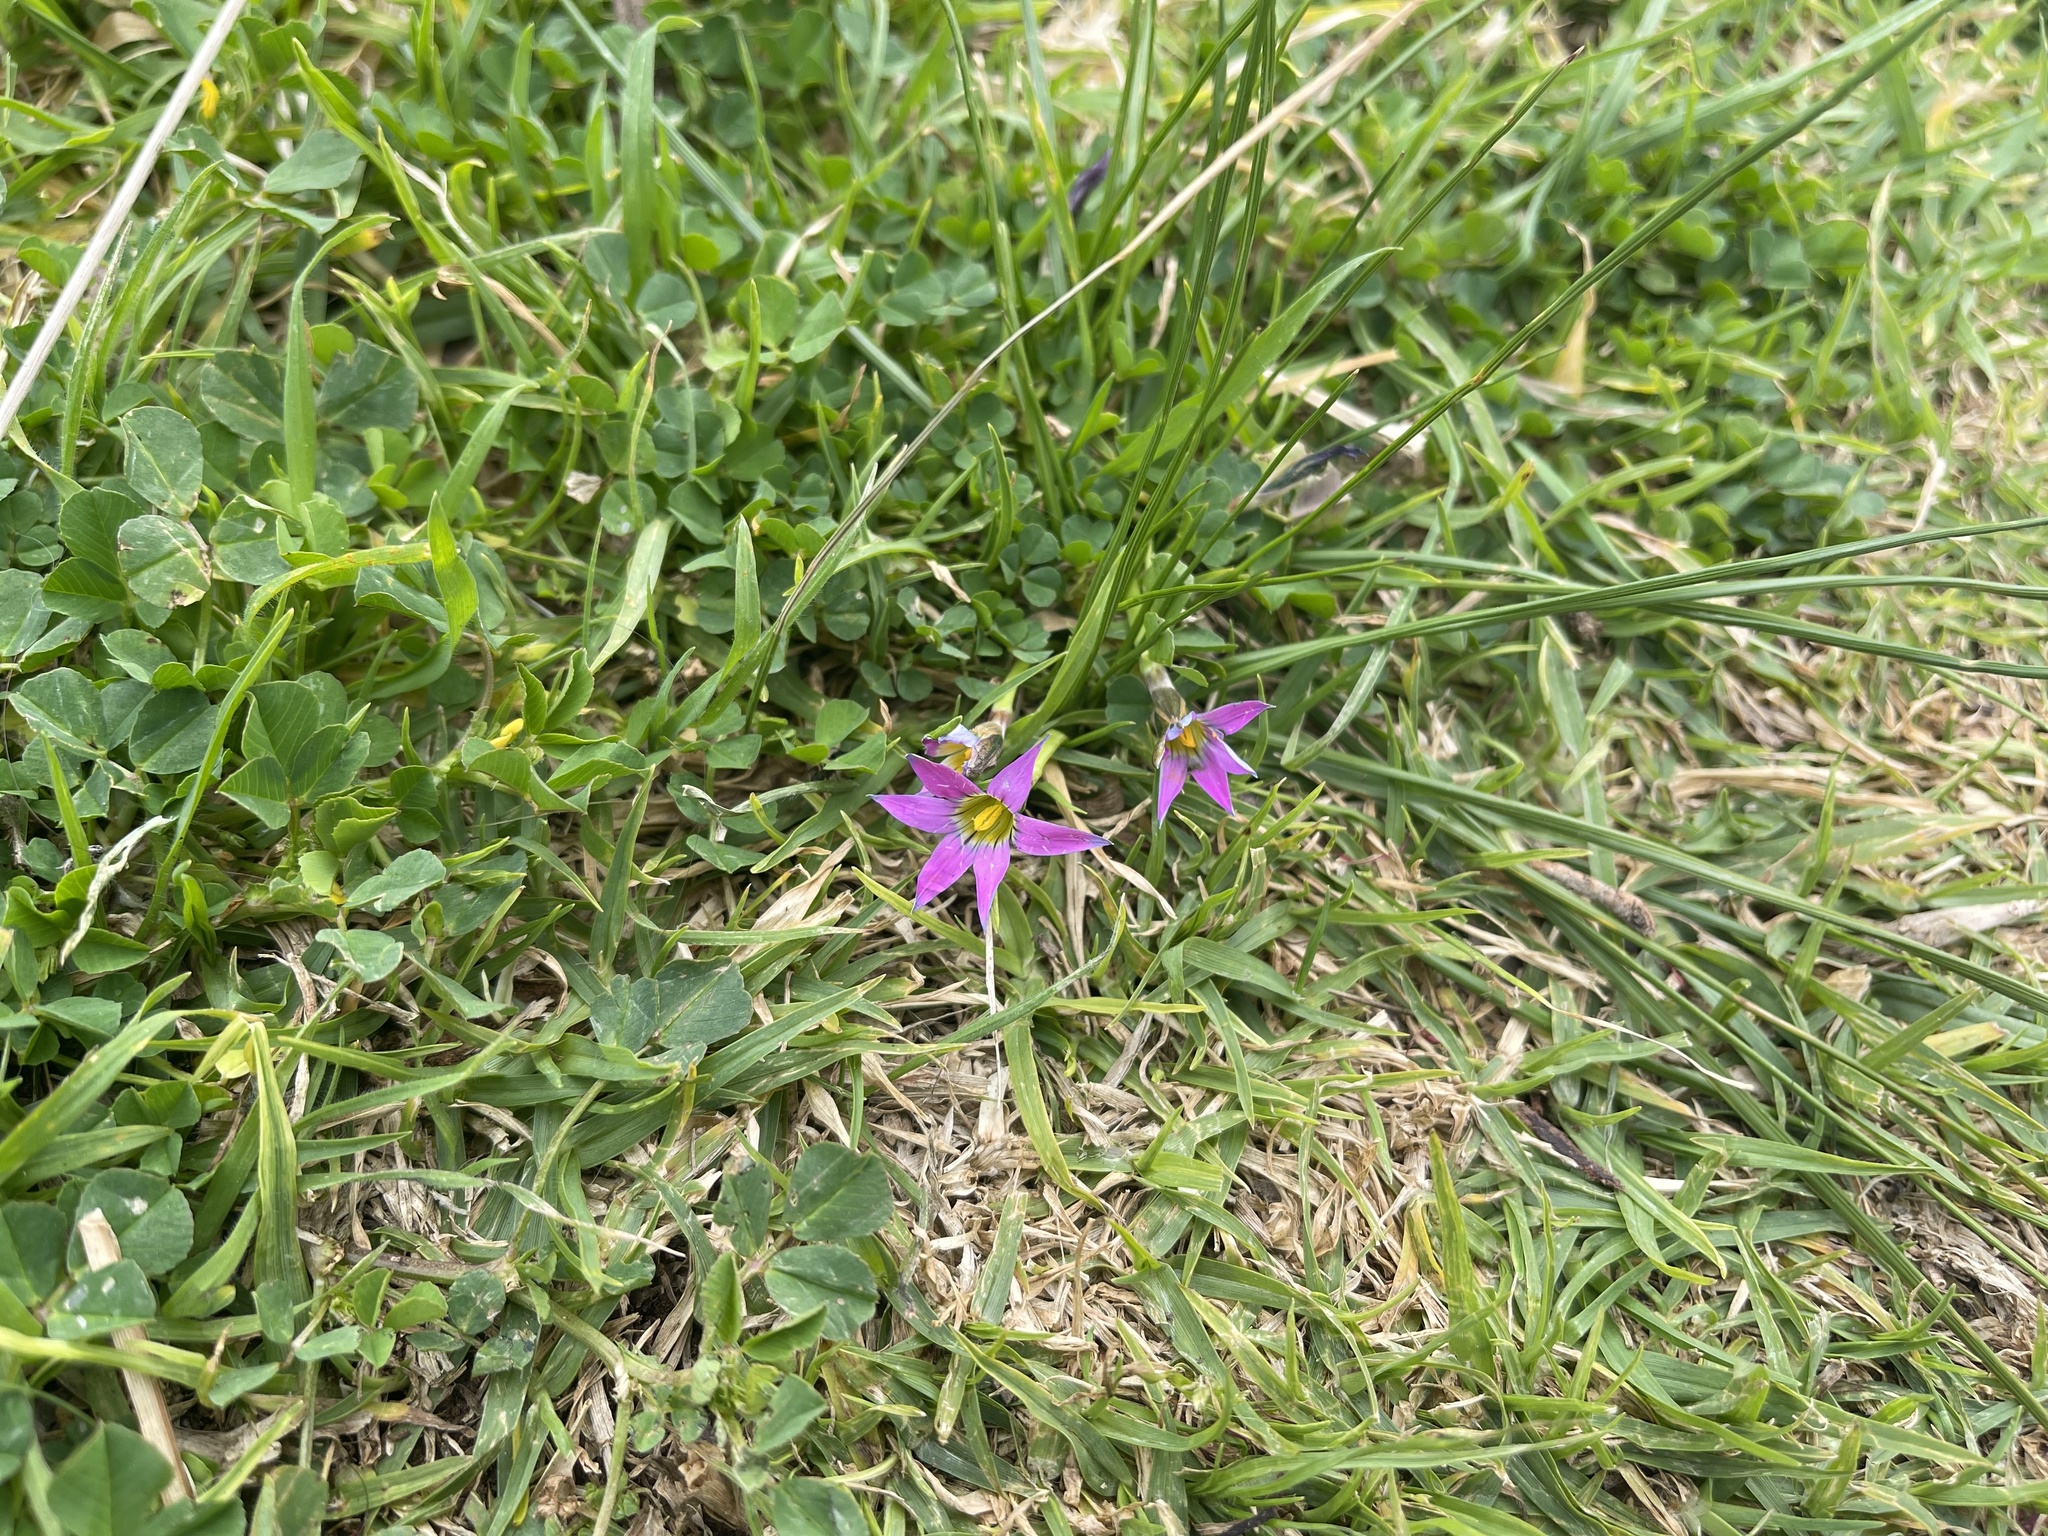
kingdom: Plantae
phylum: Tracheophyta
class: Liliopsida
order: Asparagales
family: Iridaceae
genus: Romulea
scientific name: Romulea rosea
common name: Oniongrass
